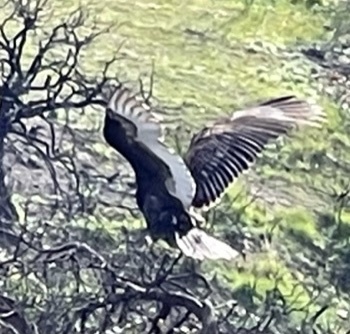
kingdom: Animalia
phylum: Chordata
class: Aves
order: Accipitriformes
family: Cathartidae
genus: Cathartes
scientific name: Cathartes aura
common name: Turkey vulture
